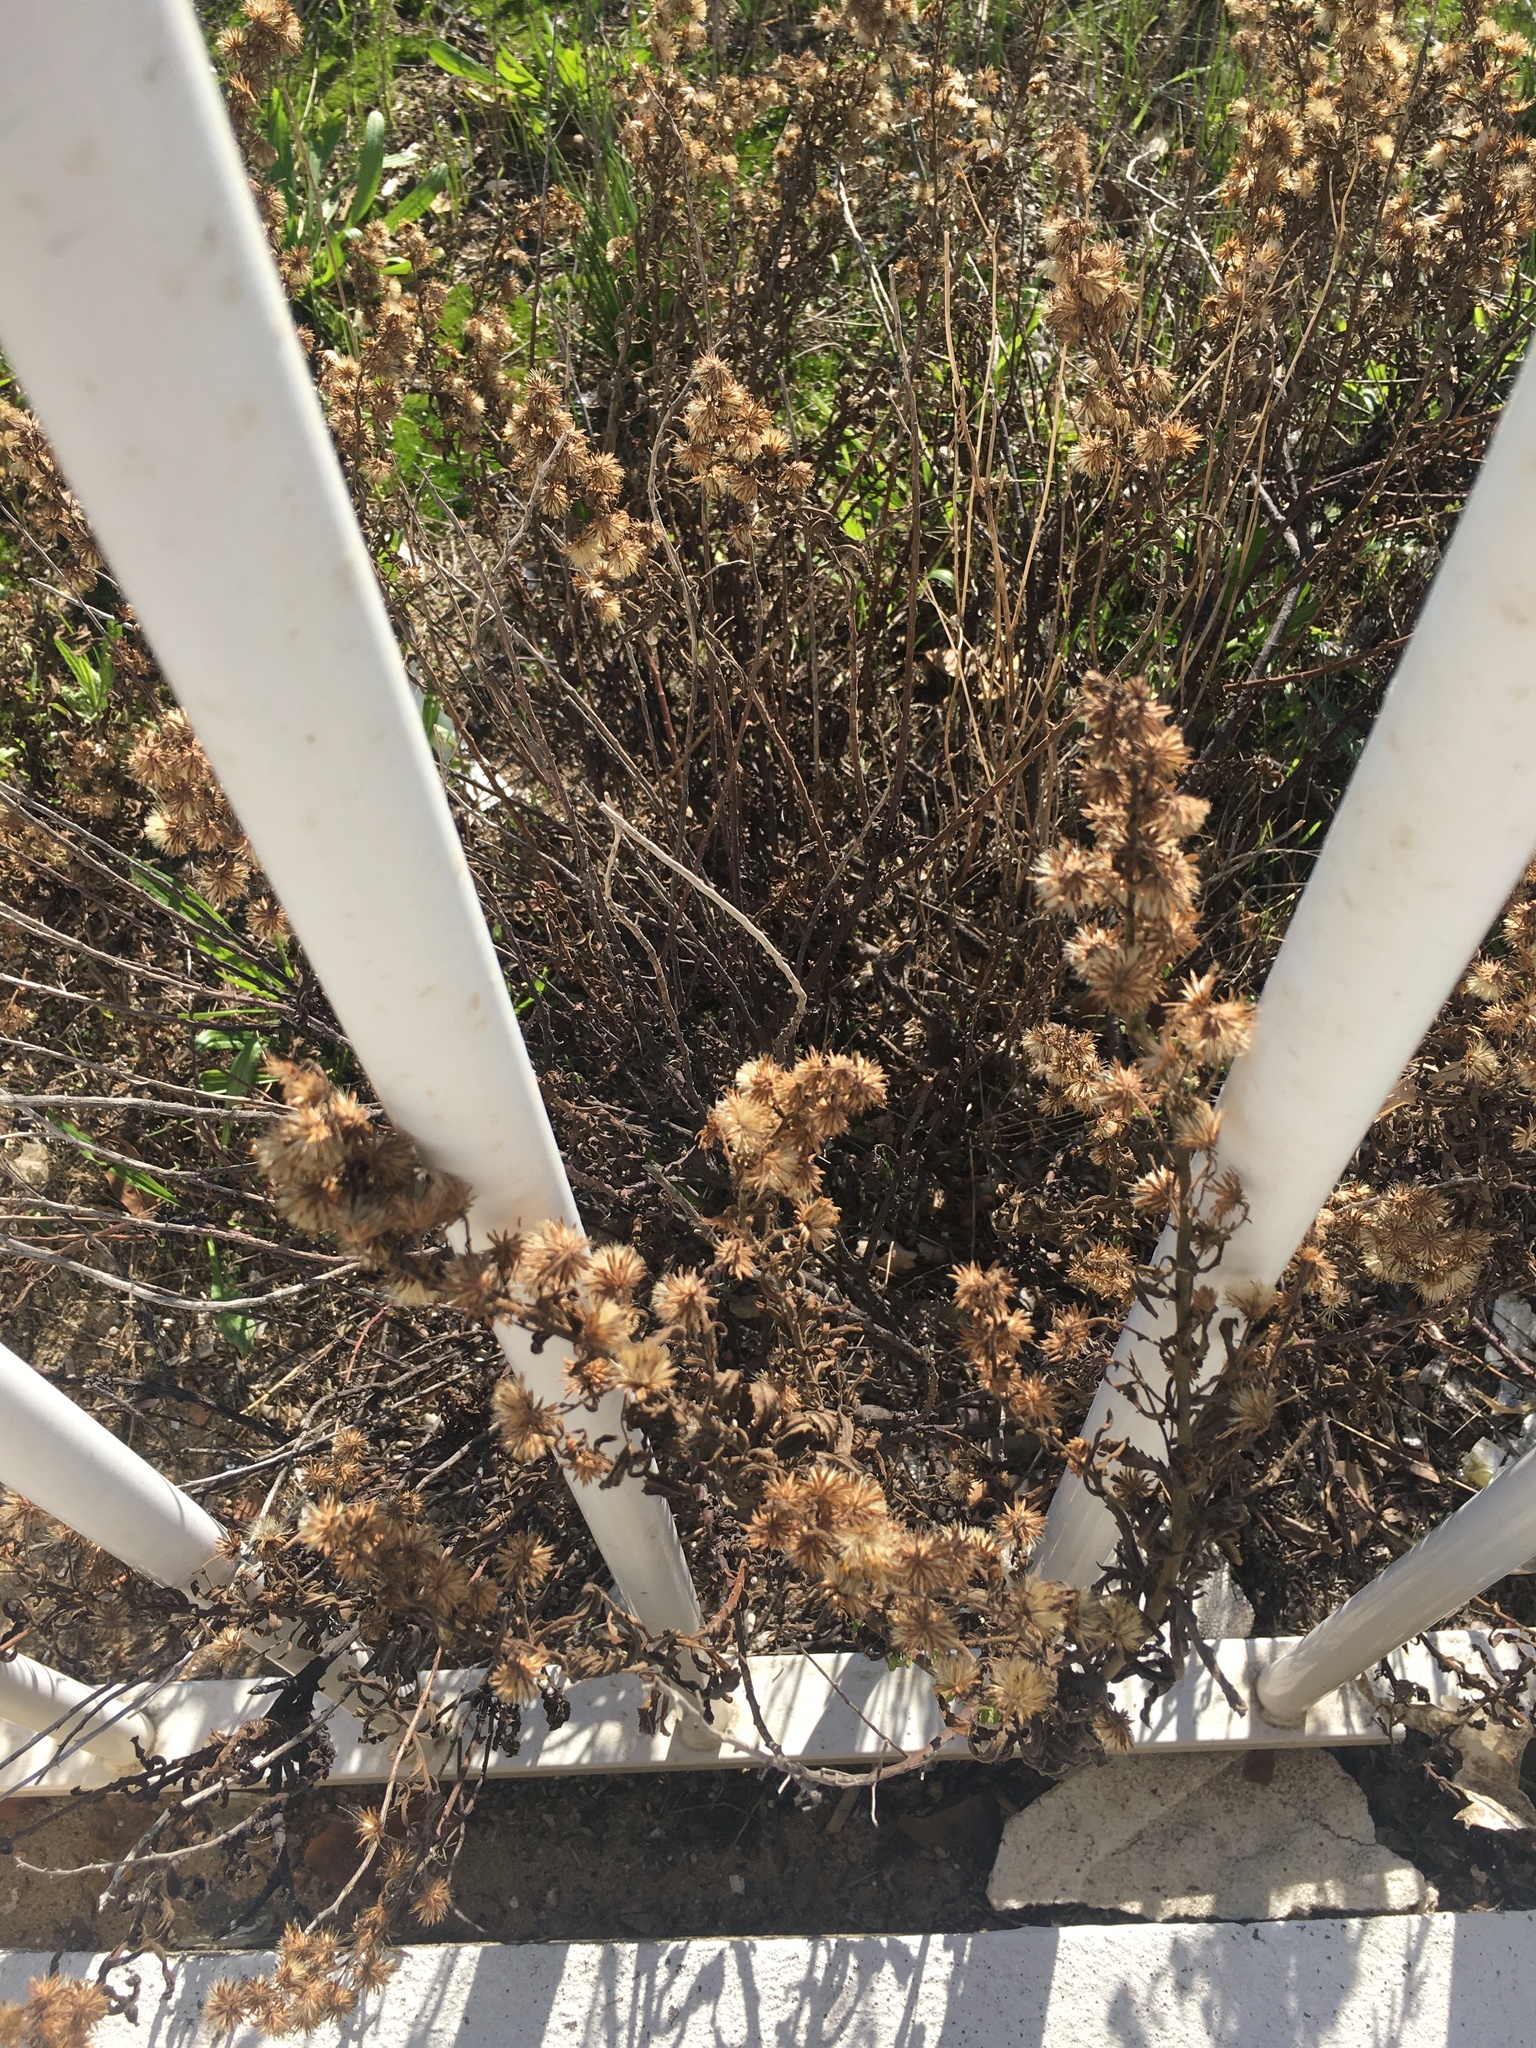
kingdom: Plantae
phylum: Tracheophyta
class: Magnoliopsida
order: Asterales
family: Asteraceae
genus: Dittrichia
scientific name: Dittrichia viscosa
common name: Woody fleabane
